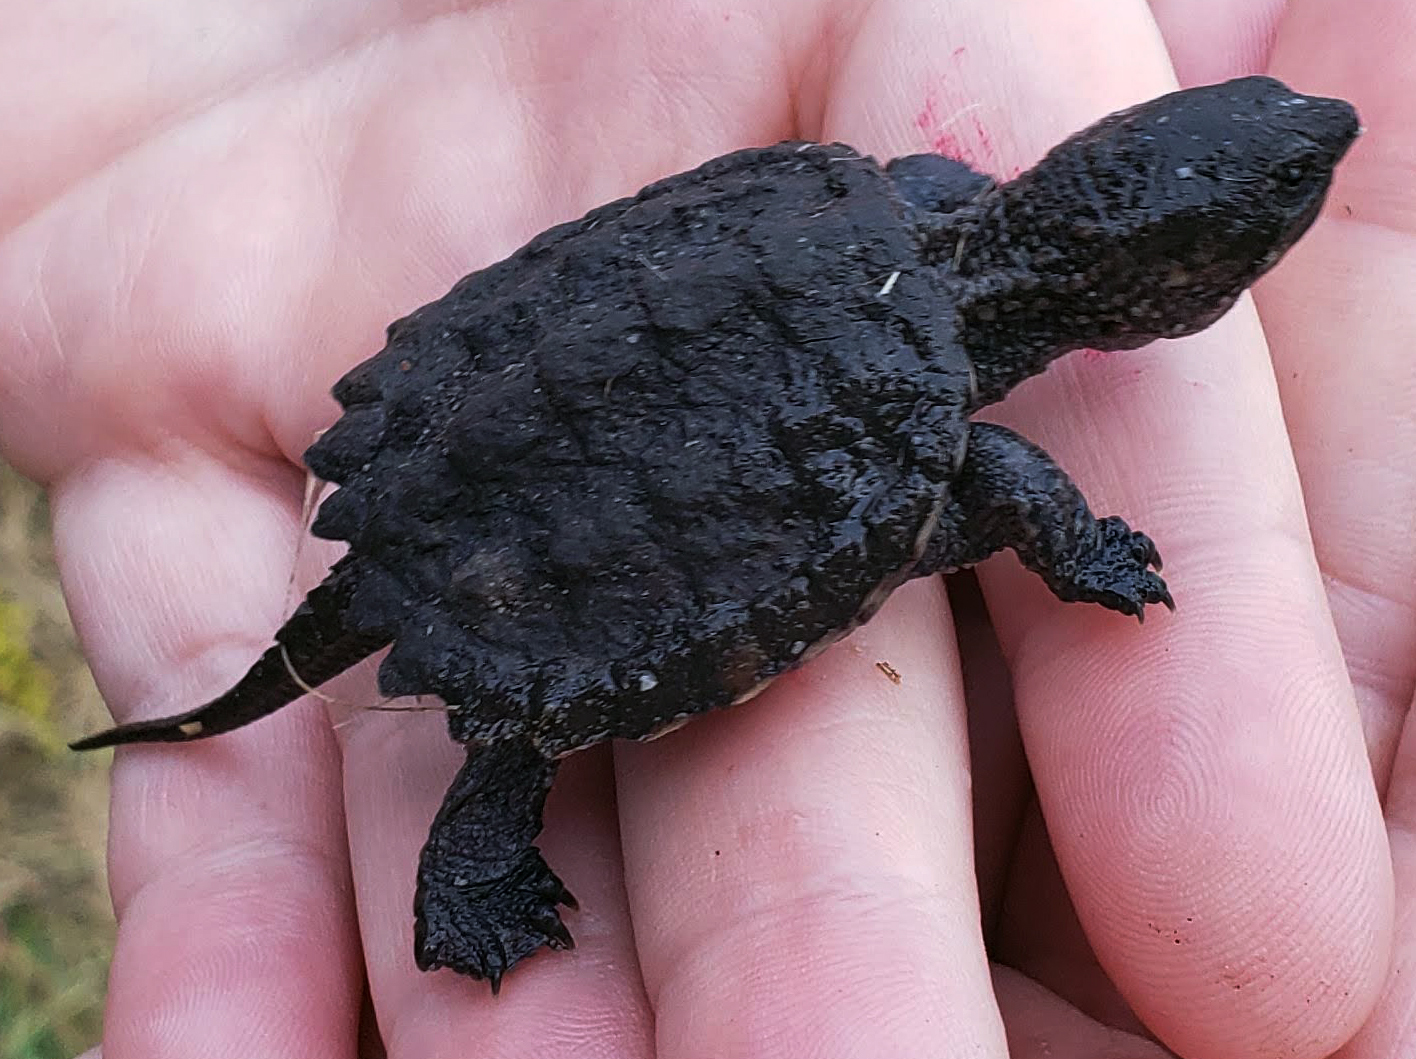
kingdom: Animalia
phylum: Chordata
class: Testudines
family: Chelydridae
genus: Chelydra
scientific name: Chelydra serpentina
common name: Common snapping turtle
